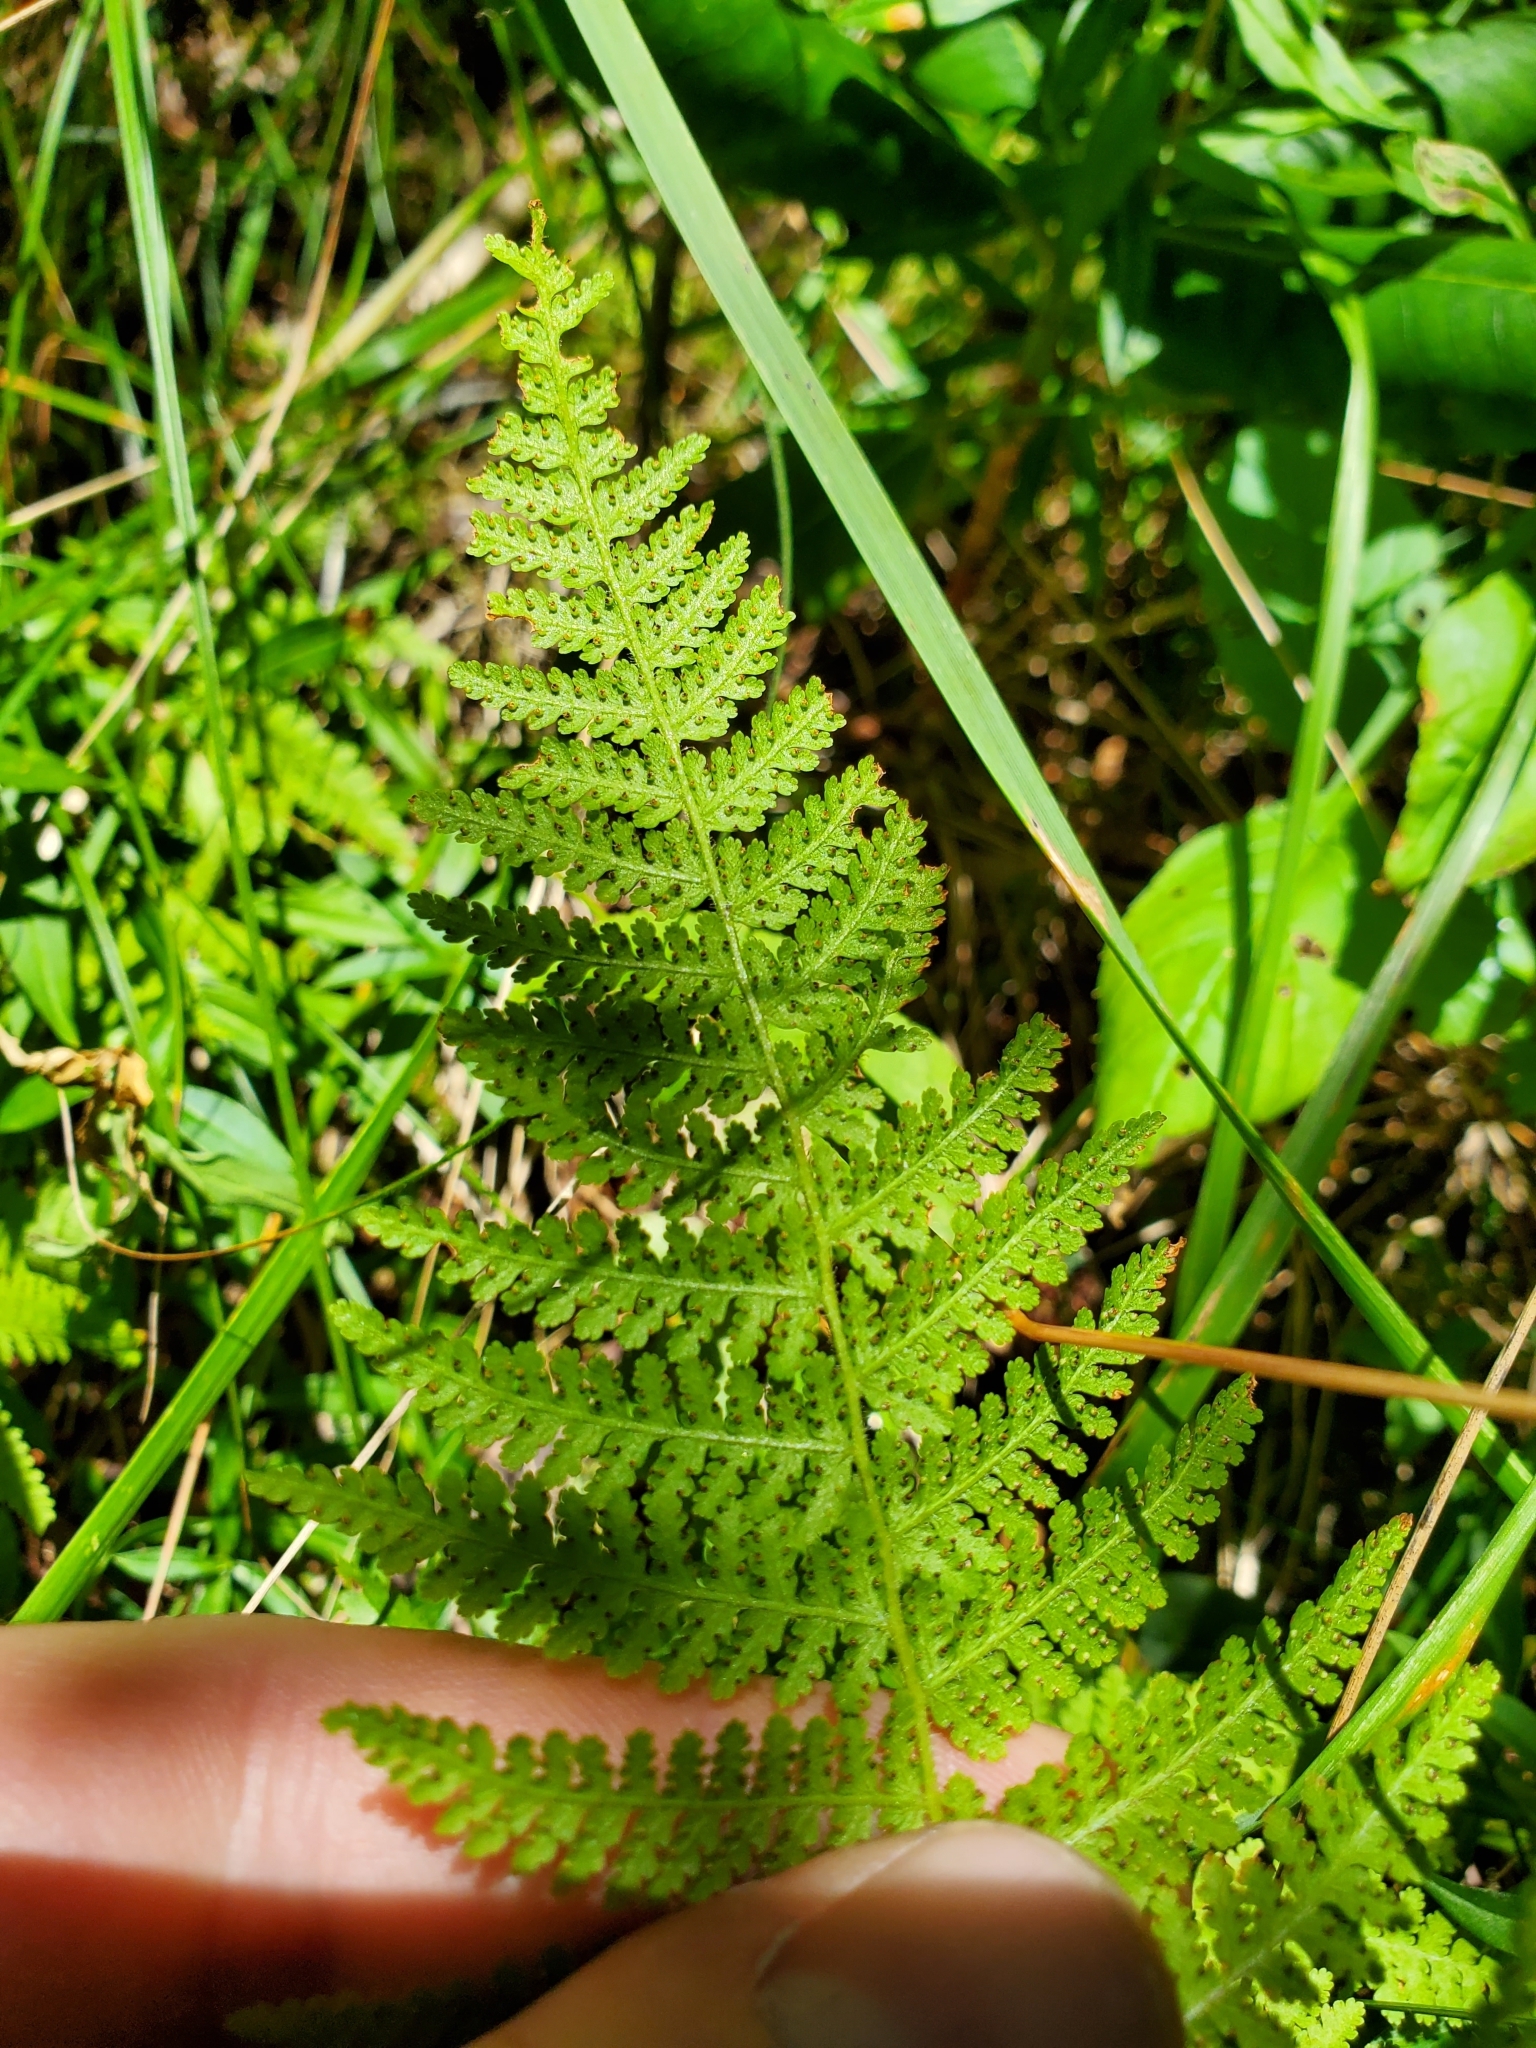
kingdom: Plantae
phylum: Tracheophyta
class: Polypodiopsida
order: Polypodiales
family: Dennstaedtiaceae
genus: Sitobolium
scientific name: Sitobolium punctilobum
